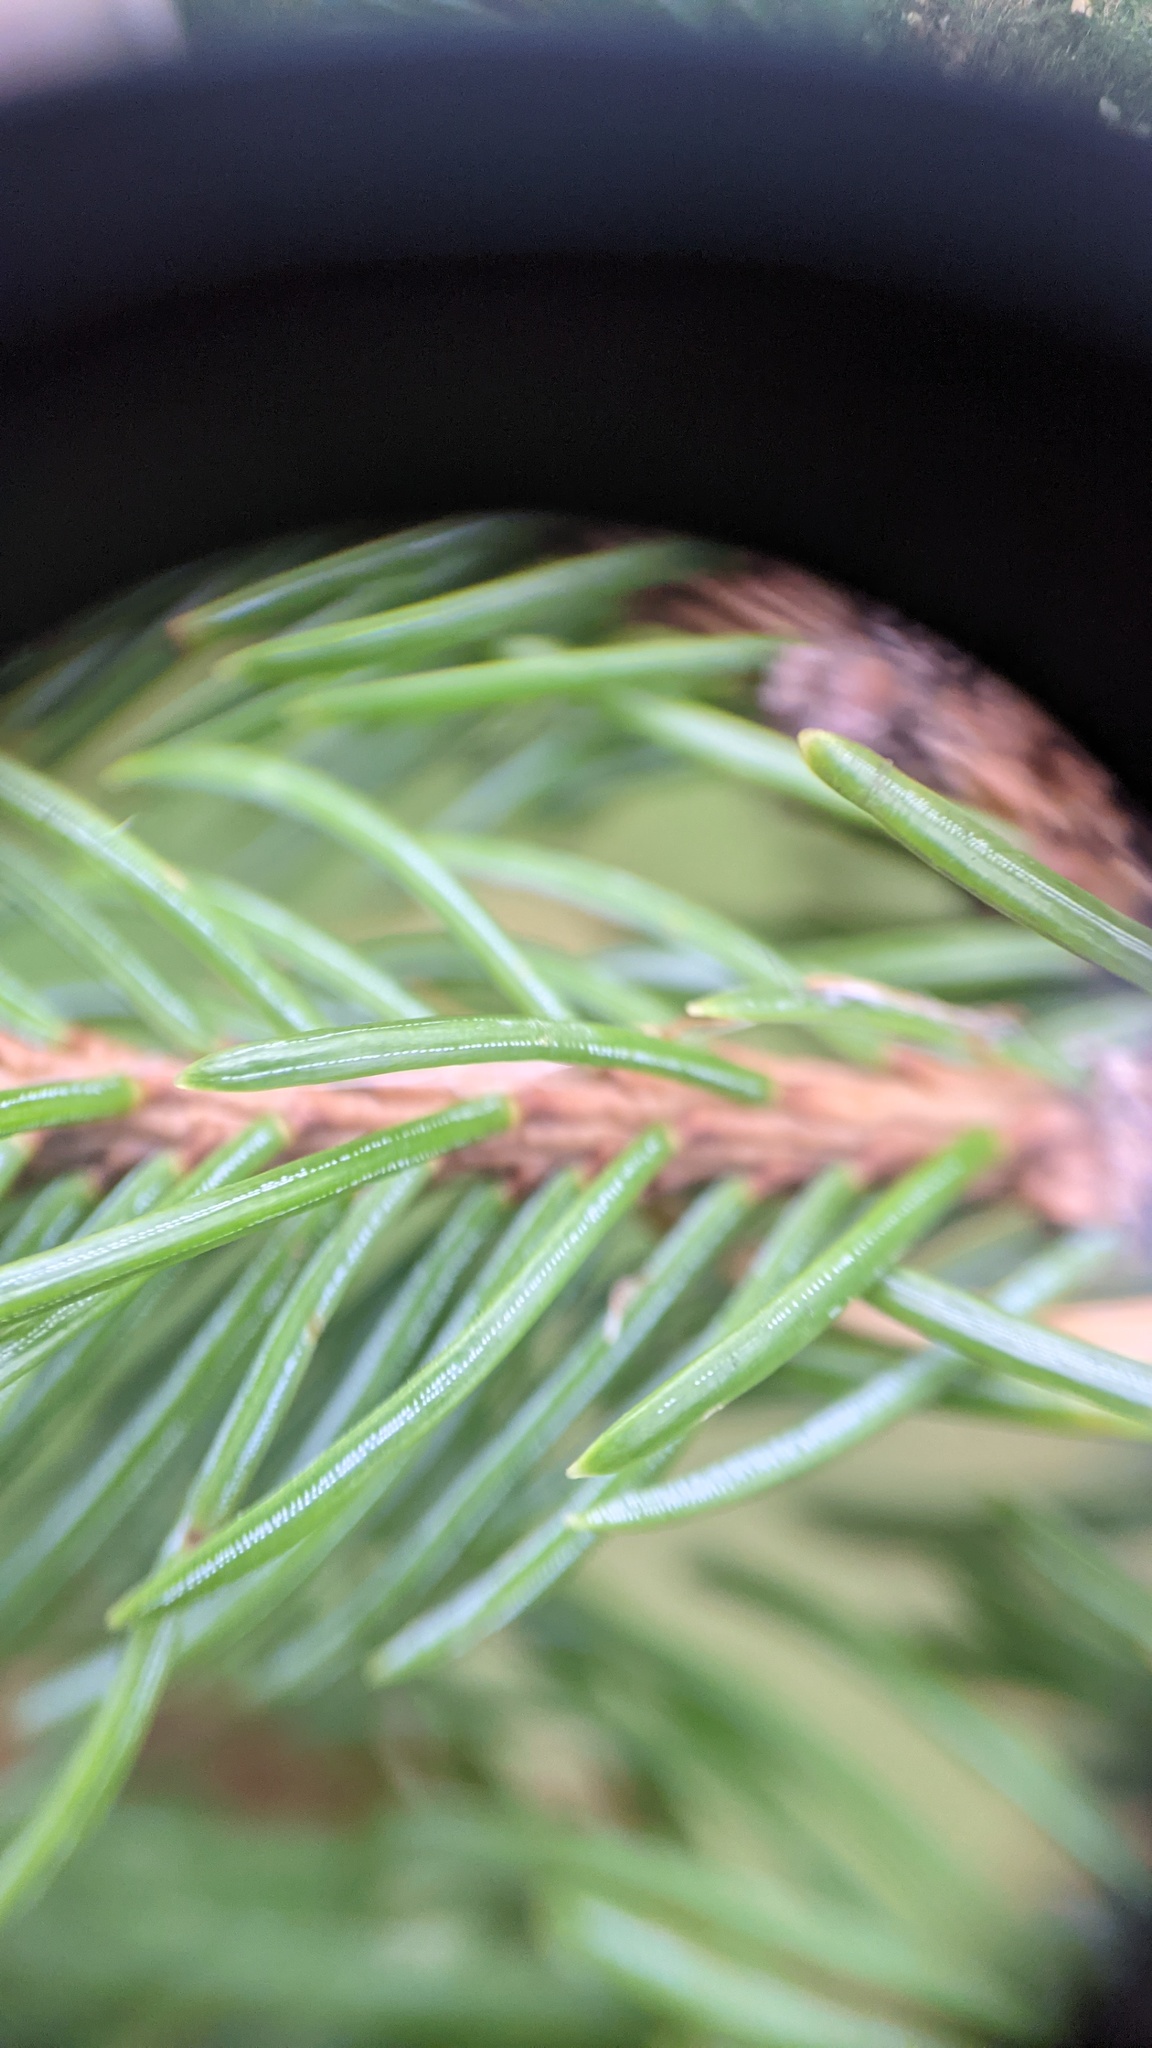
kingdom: Plantae
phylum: Tracheophyta
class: Pinopsida
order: Pinales
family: Pinaceae
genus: Picea
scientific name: Picea glauca
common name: White spruce
